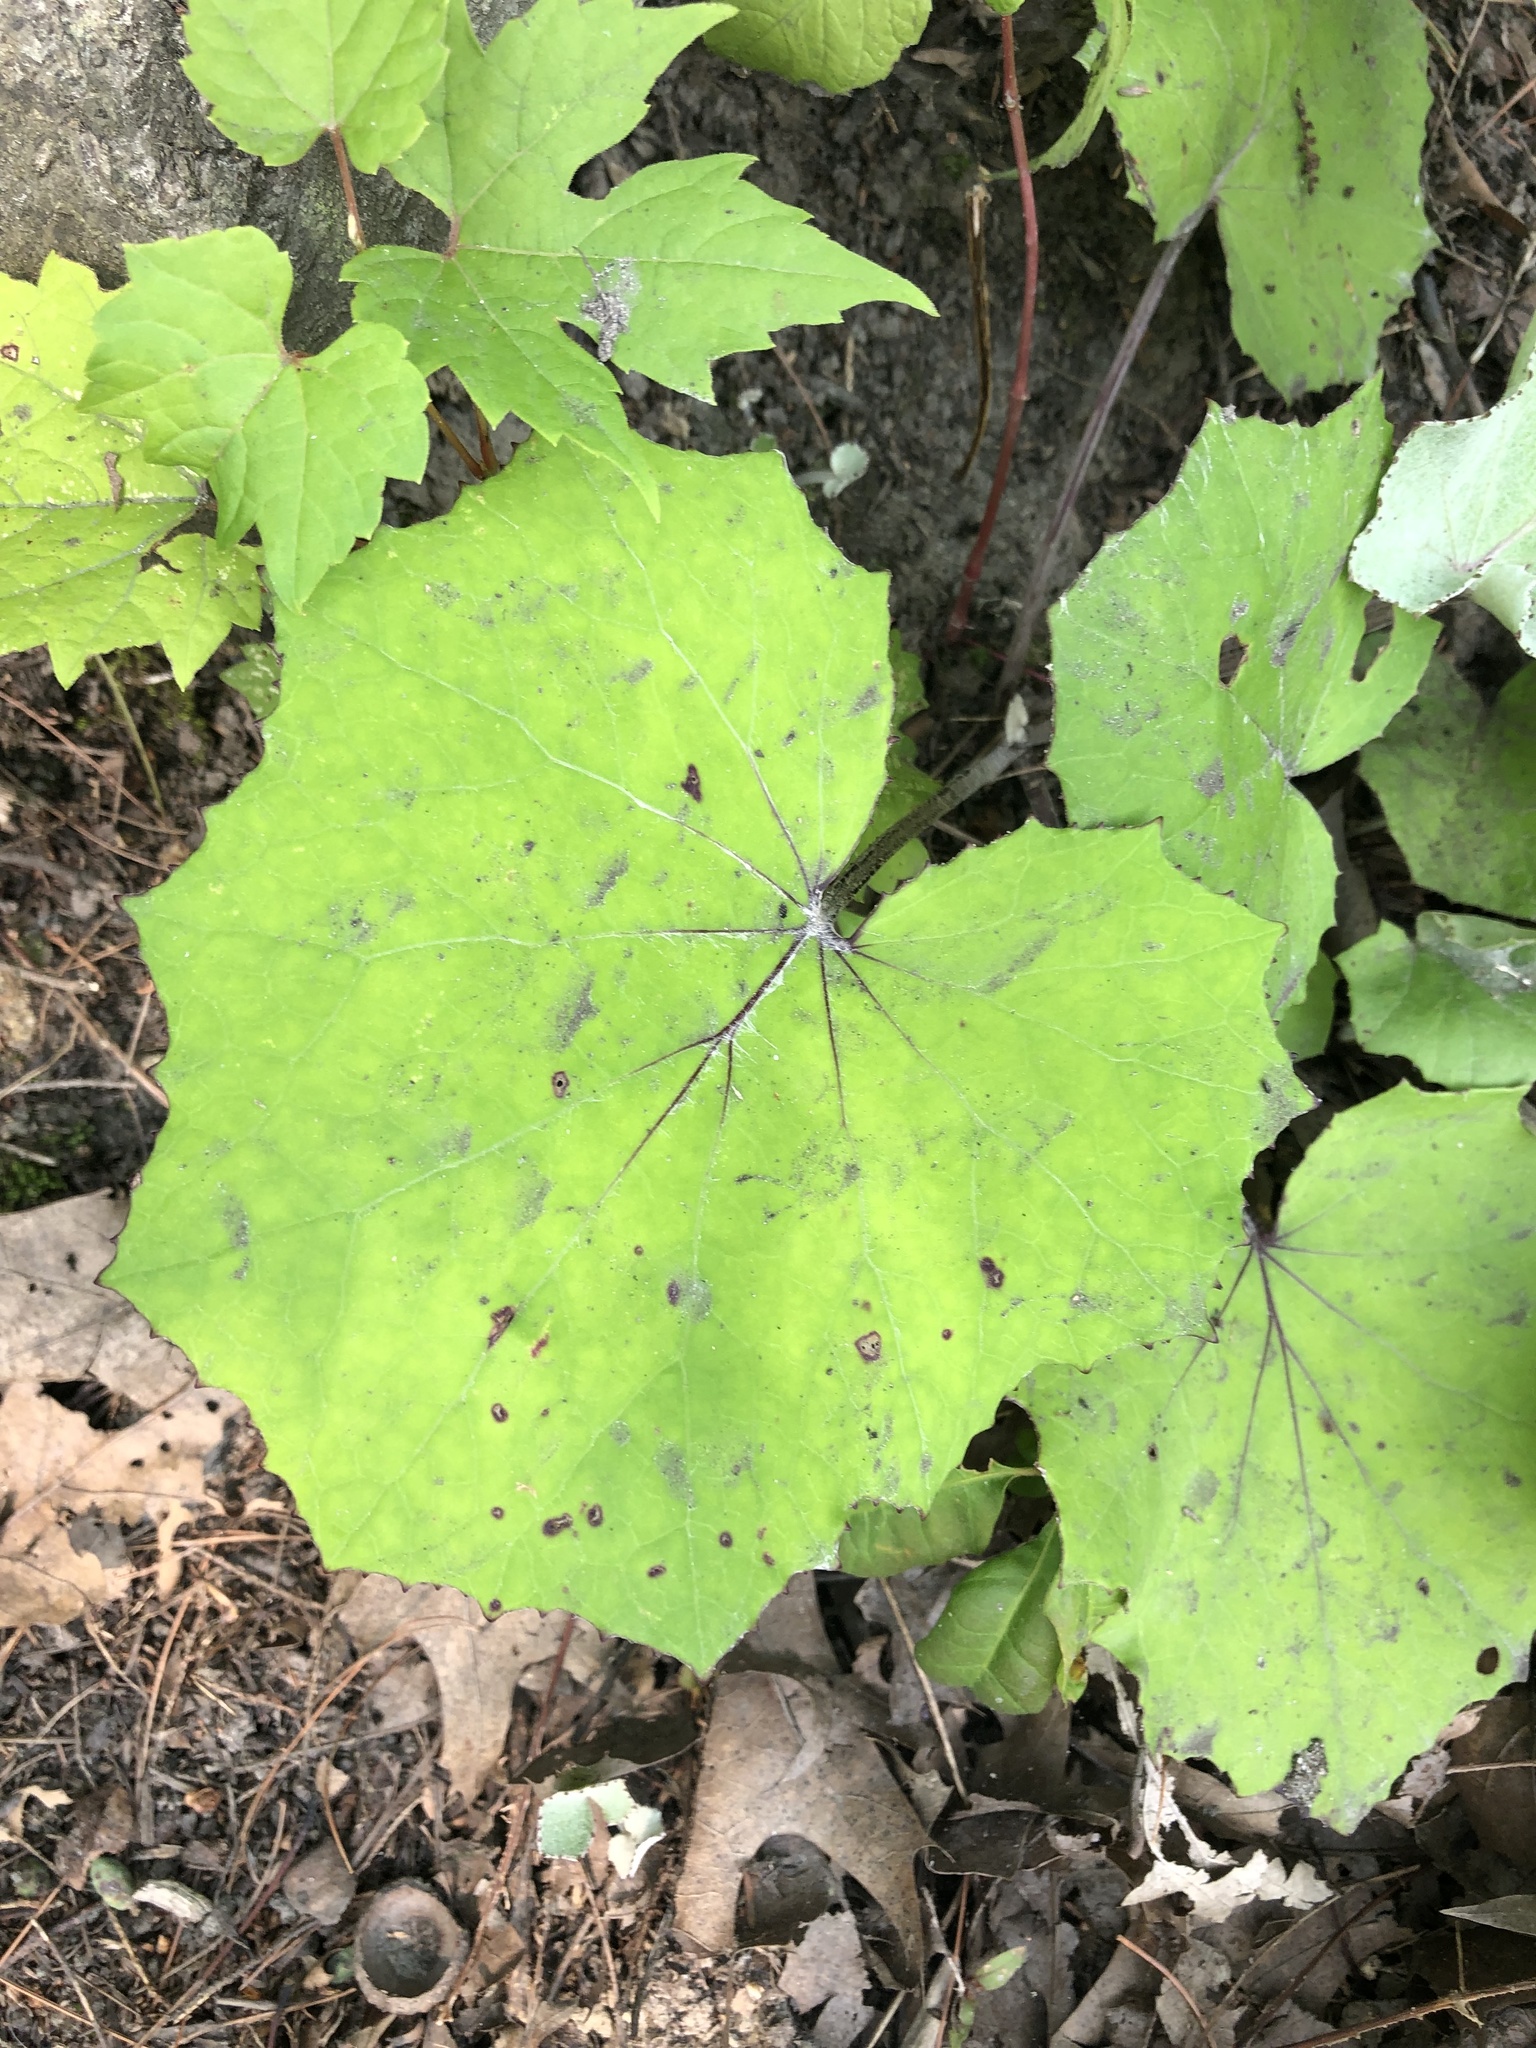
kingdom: Plantae
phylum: Tracheophyta
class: Magnoliopsida
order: Asterales
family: Asteraceae
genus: Tussilago
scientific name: Tussilago farfara
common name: Coltsfoot
